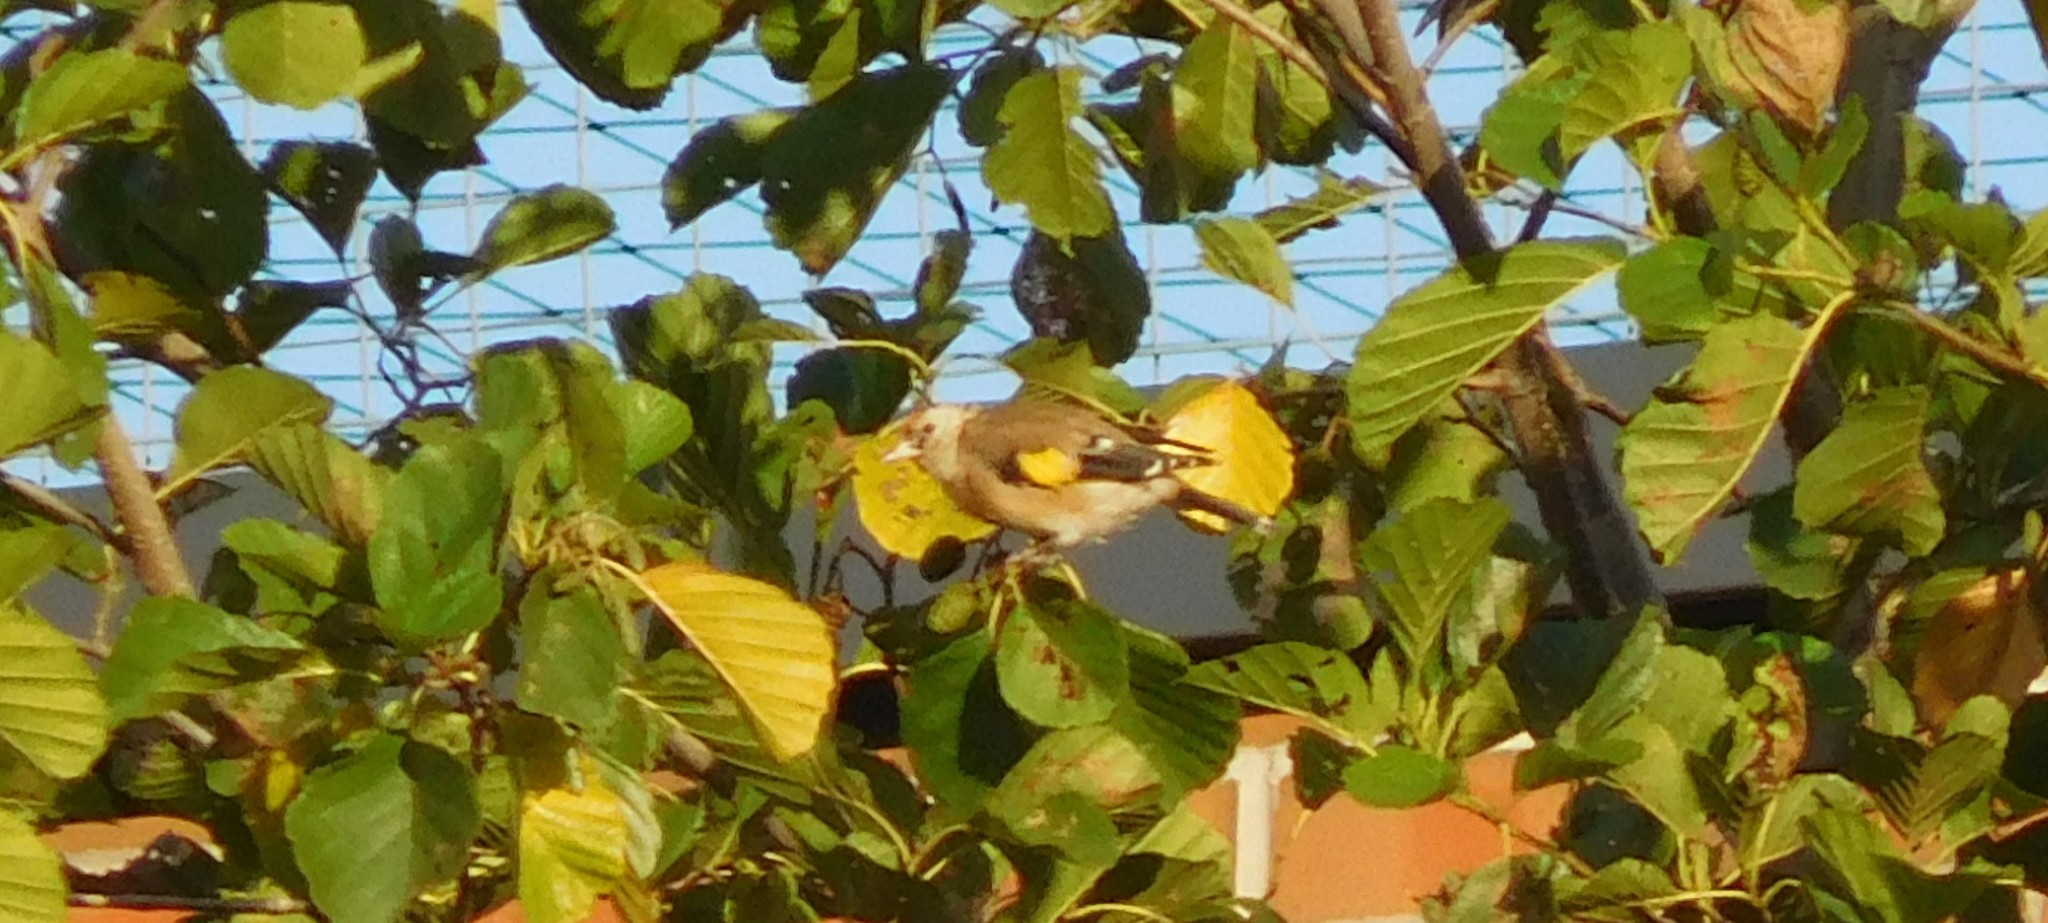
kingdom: Animalia
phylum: Chordata
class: Aves
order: Passeriformes
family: Fringillidae
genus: Carduelis
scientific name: Carduelis carduelis
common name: European goldfinch
